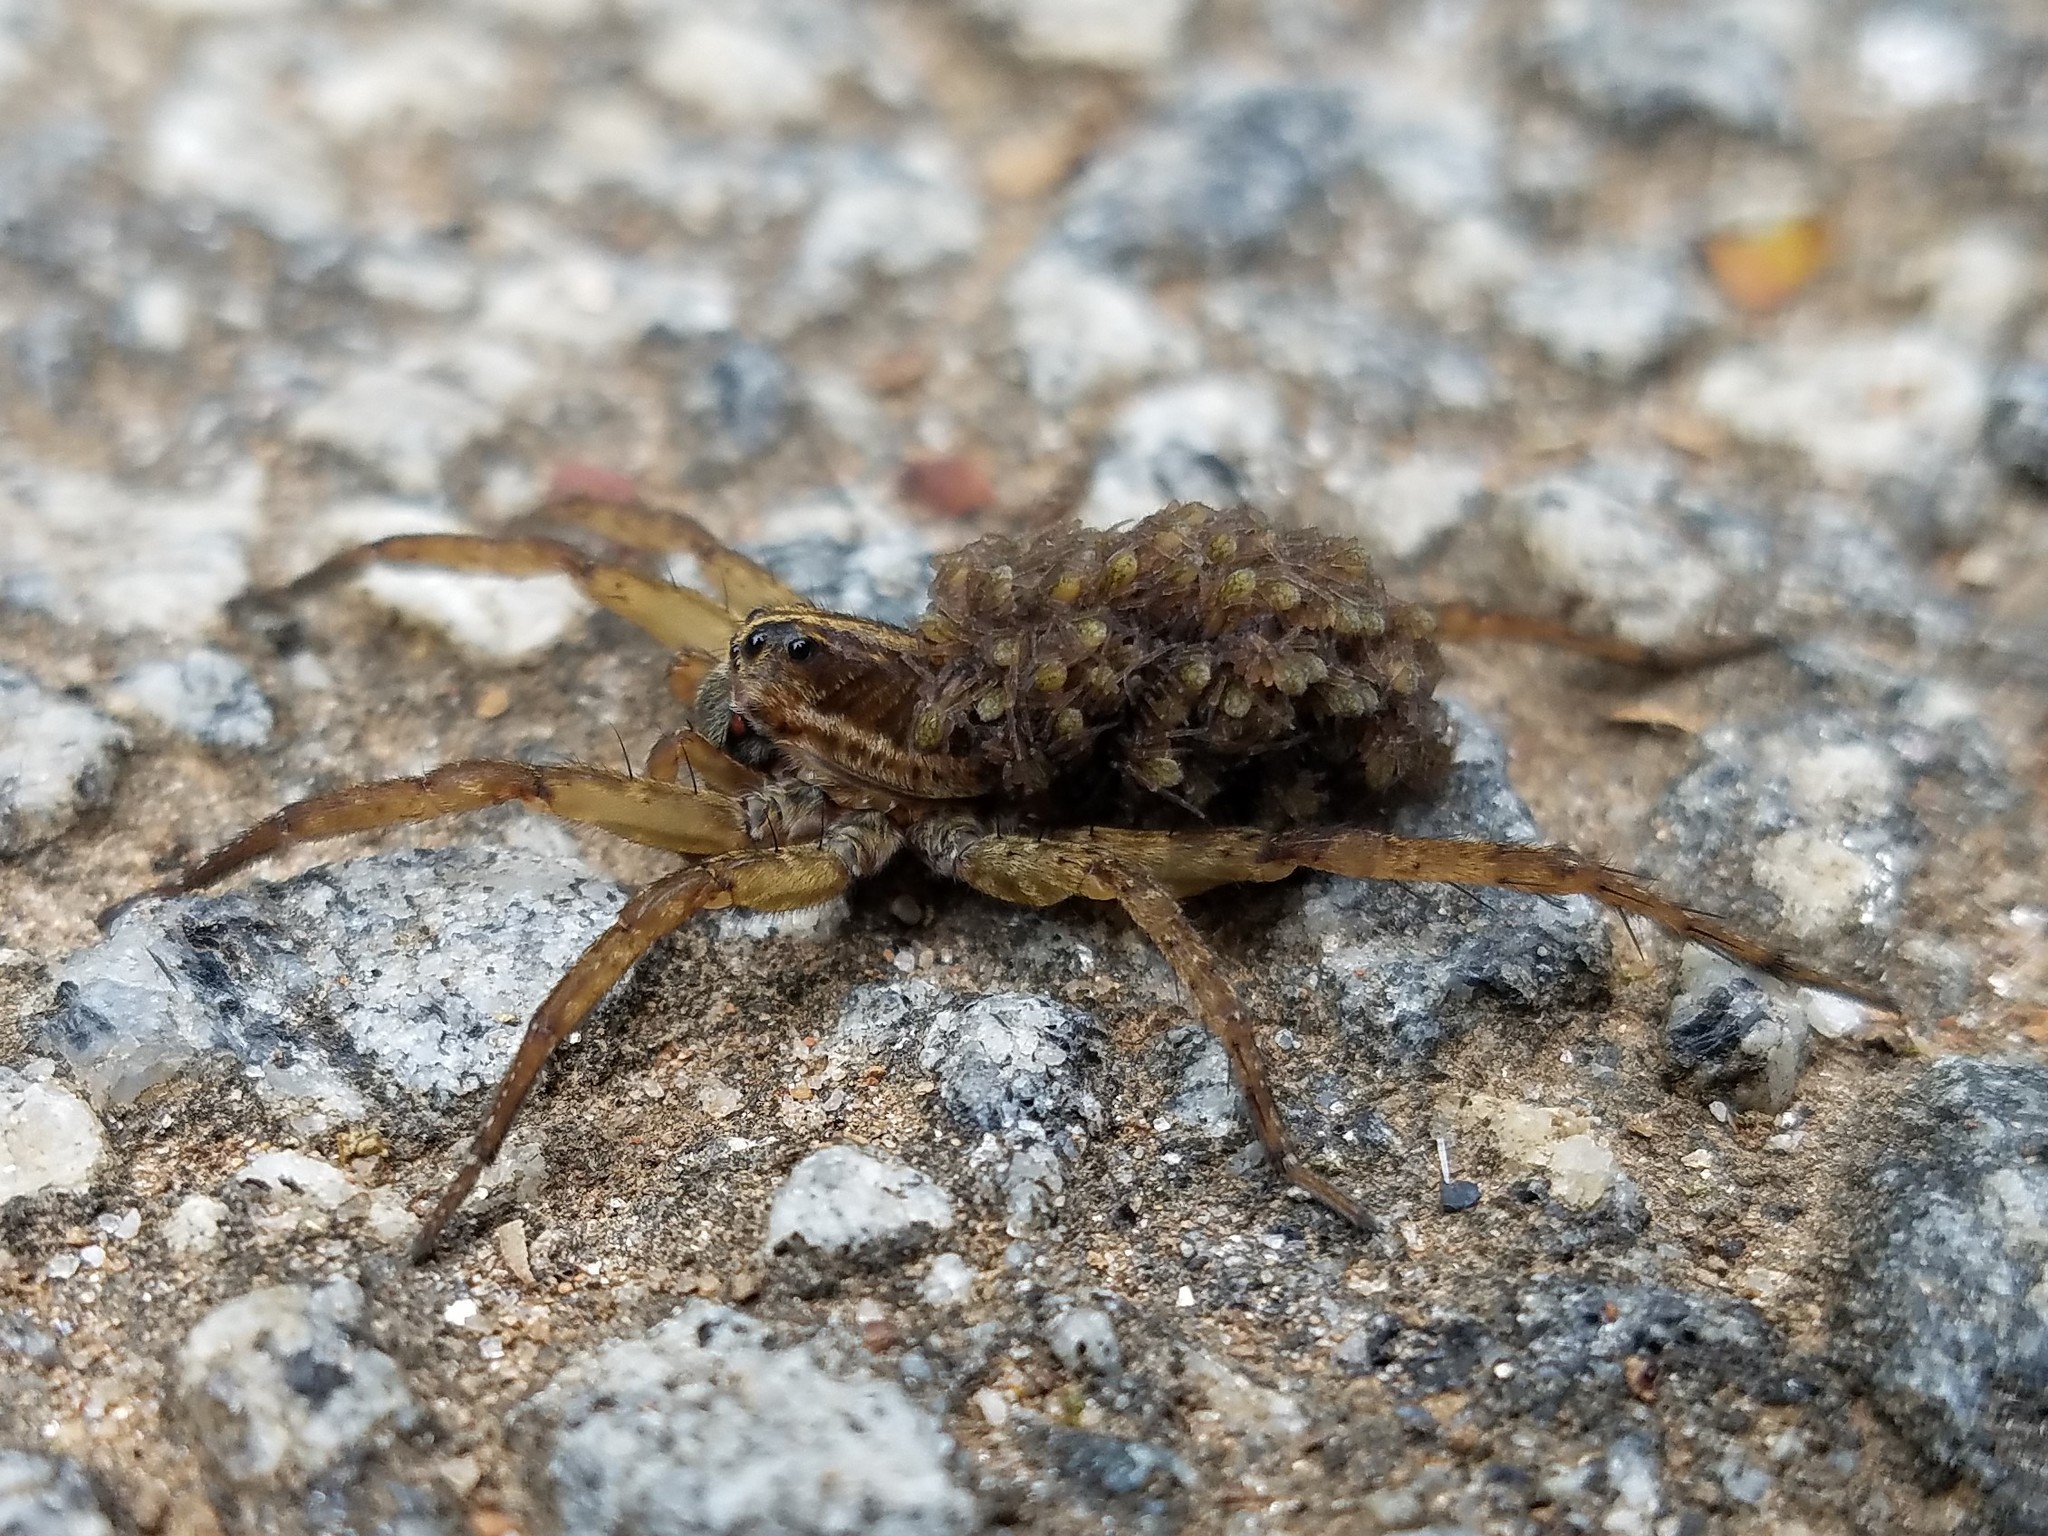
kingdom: Animalia
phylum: Arthropoda
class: Arachnida
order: Araneae
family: Lycosidae
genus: Tigrosa
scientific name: Tigrosa annexa
